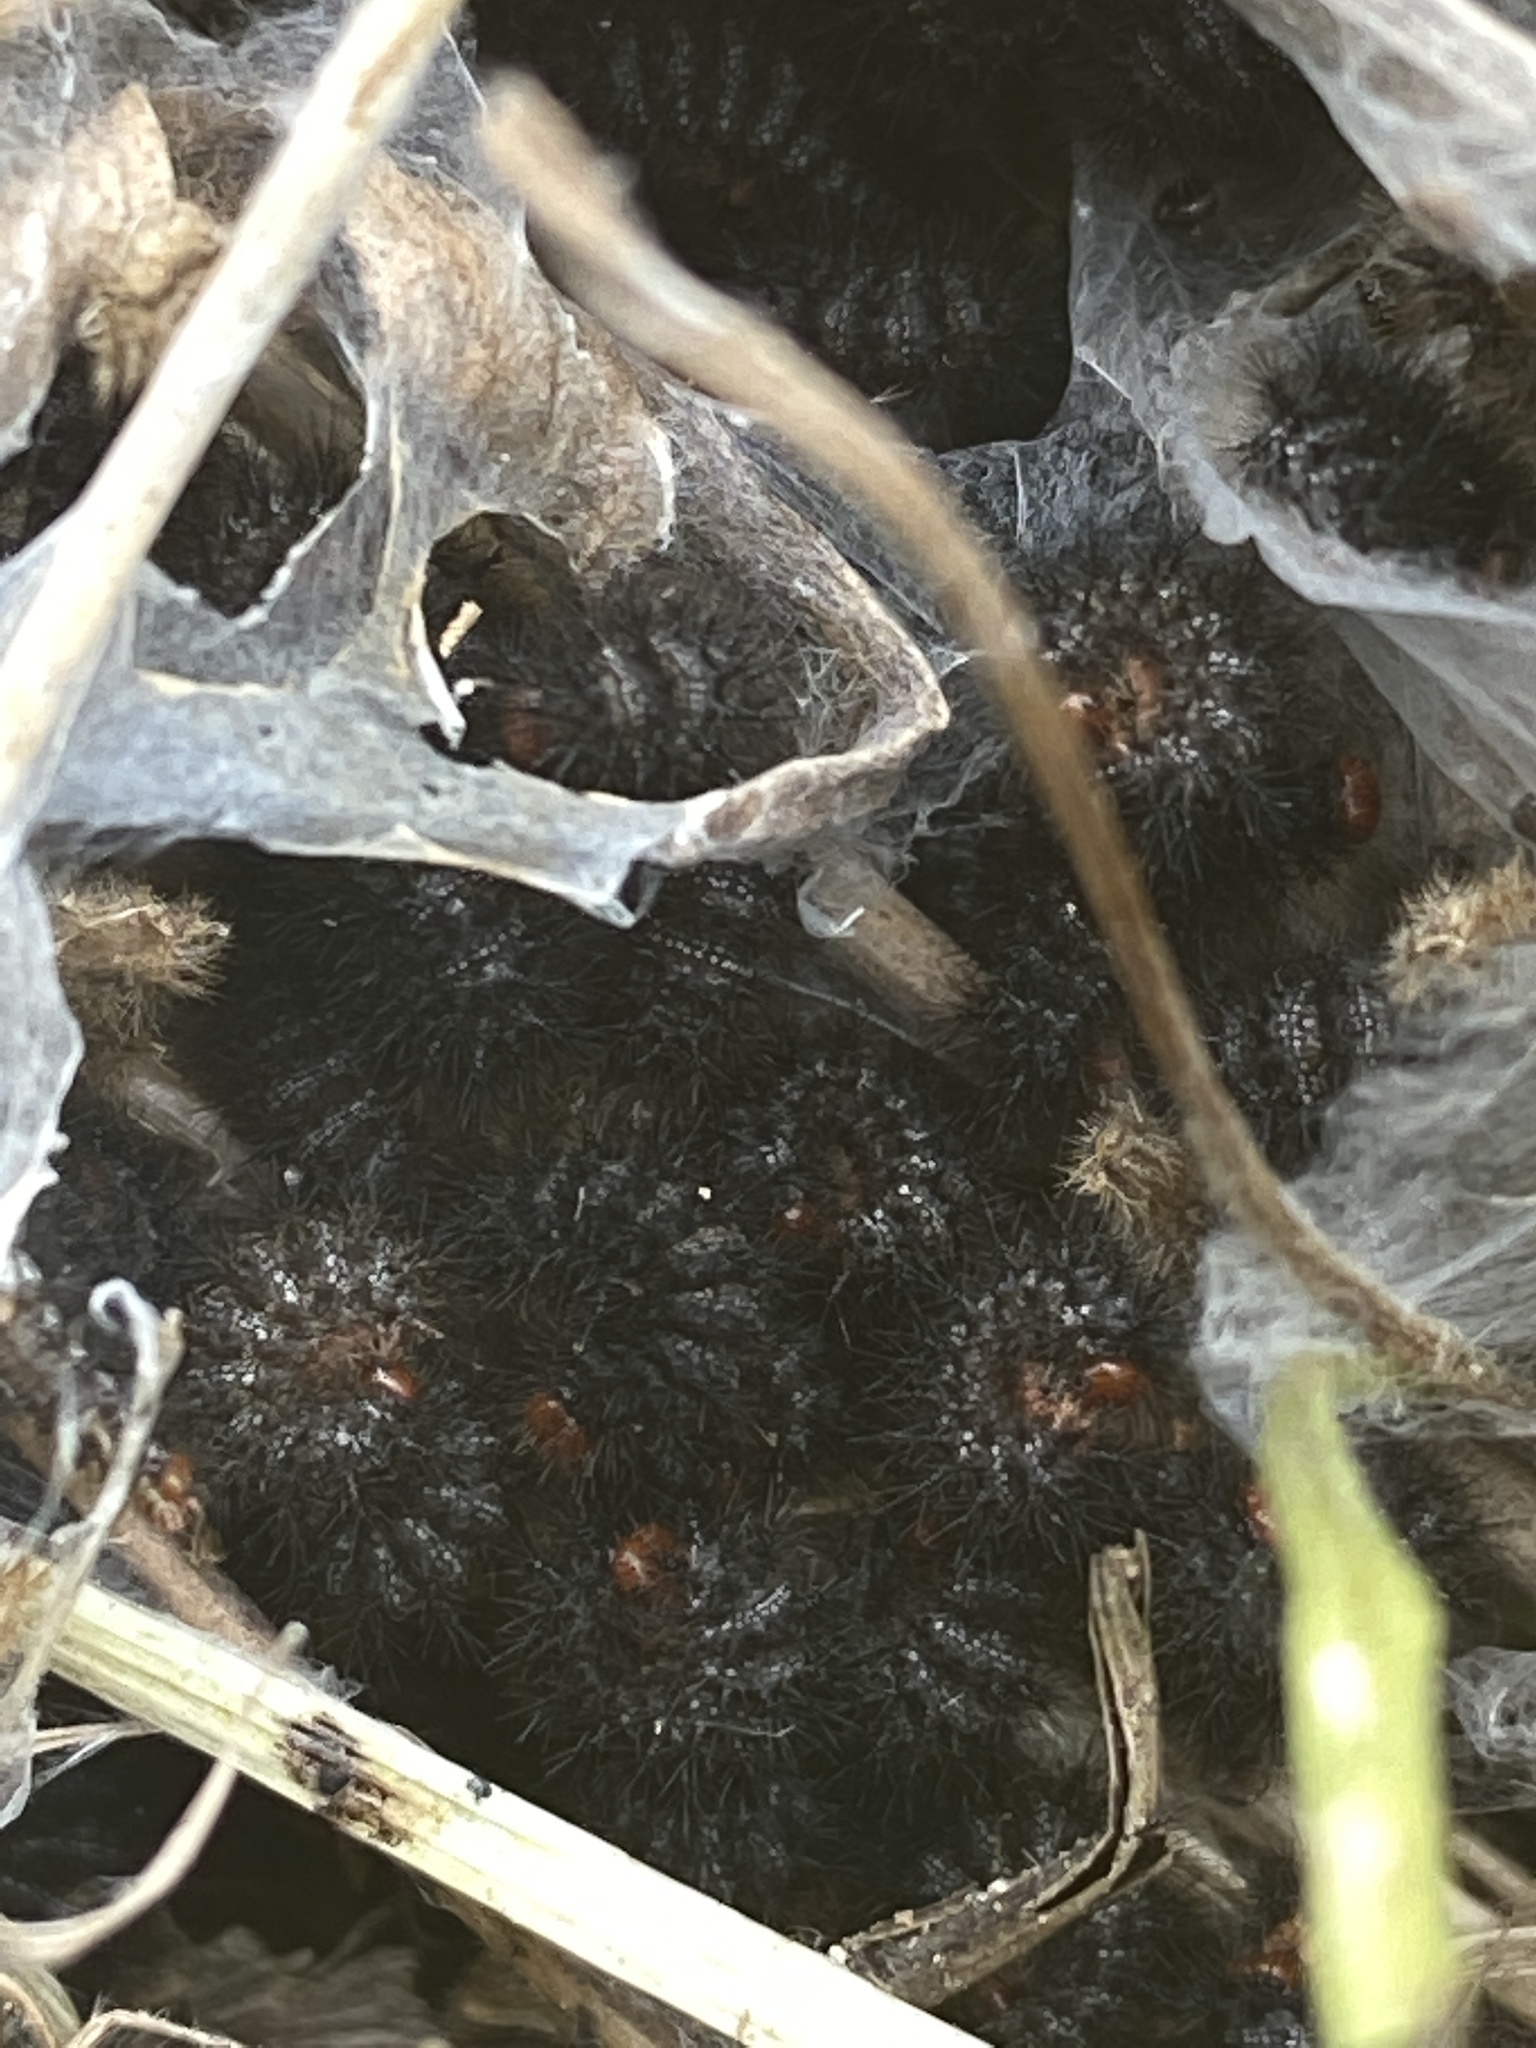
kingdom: Animalia
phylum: Arthropoda
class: Insecta
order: Lepidoptera
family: Nymphalidae
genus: Melitaea
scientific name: Melitaea cinxia
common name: Glanville fritillary
